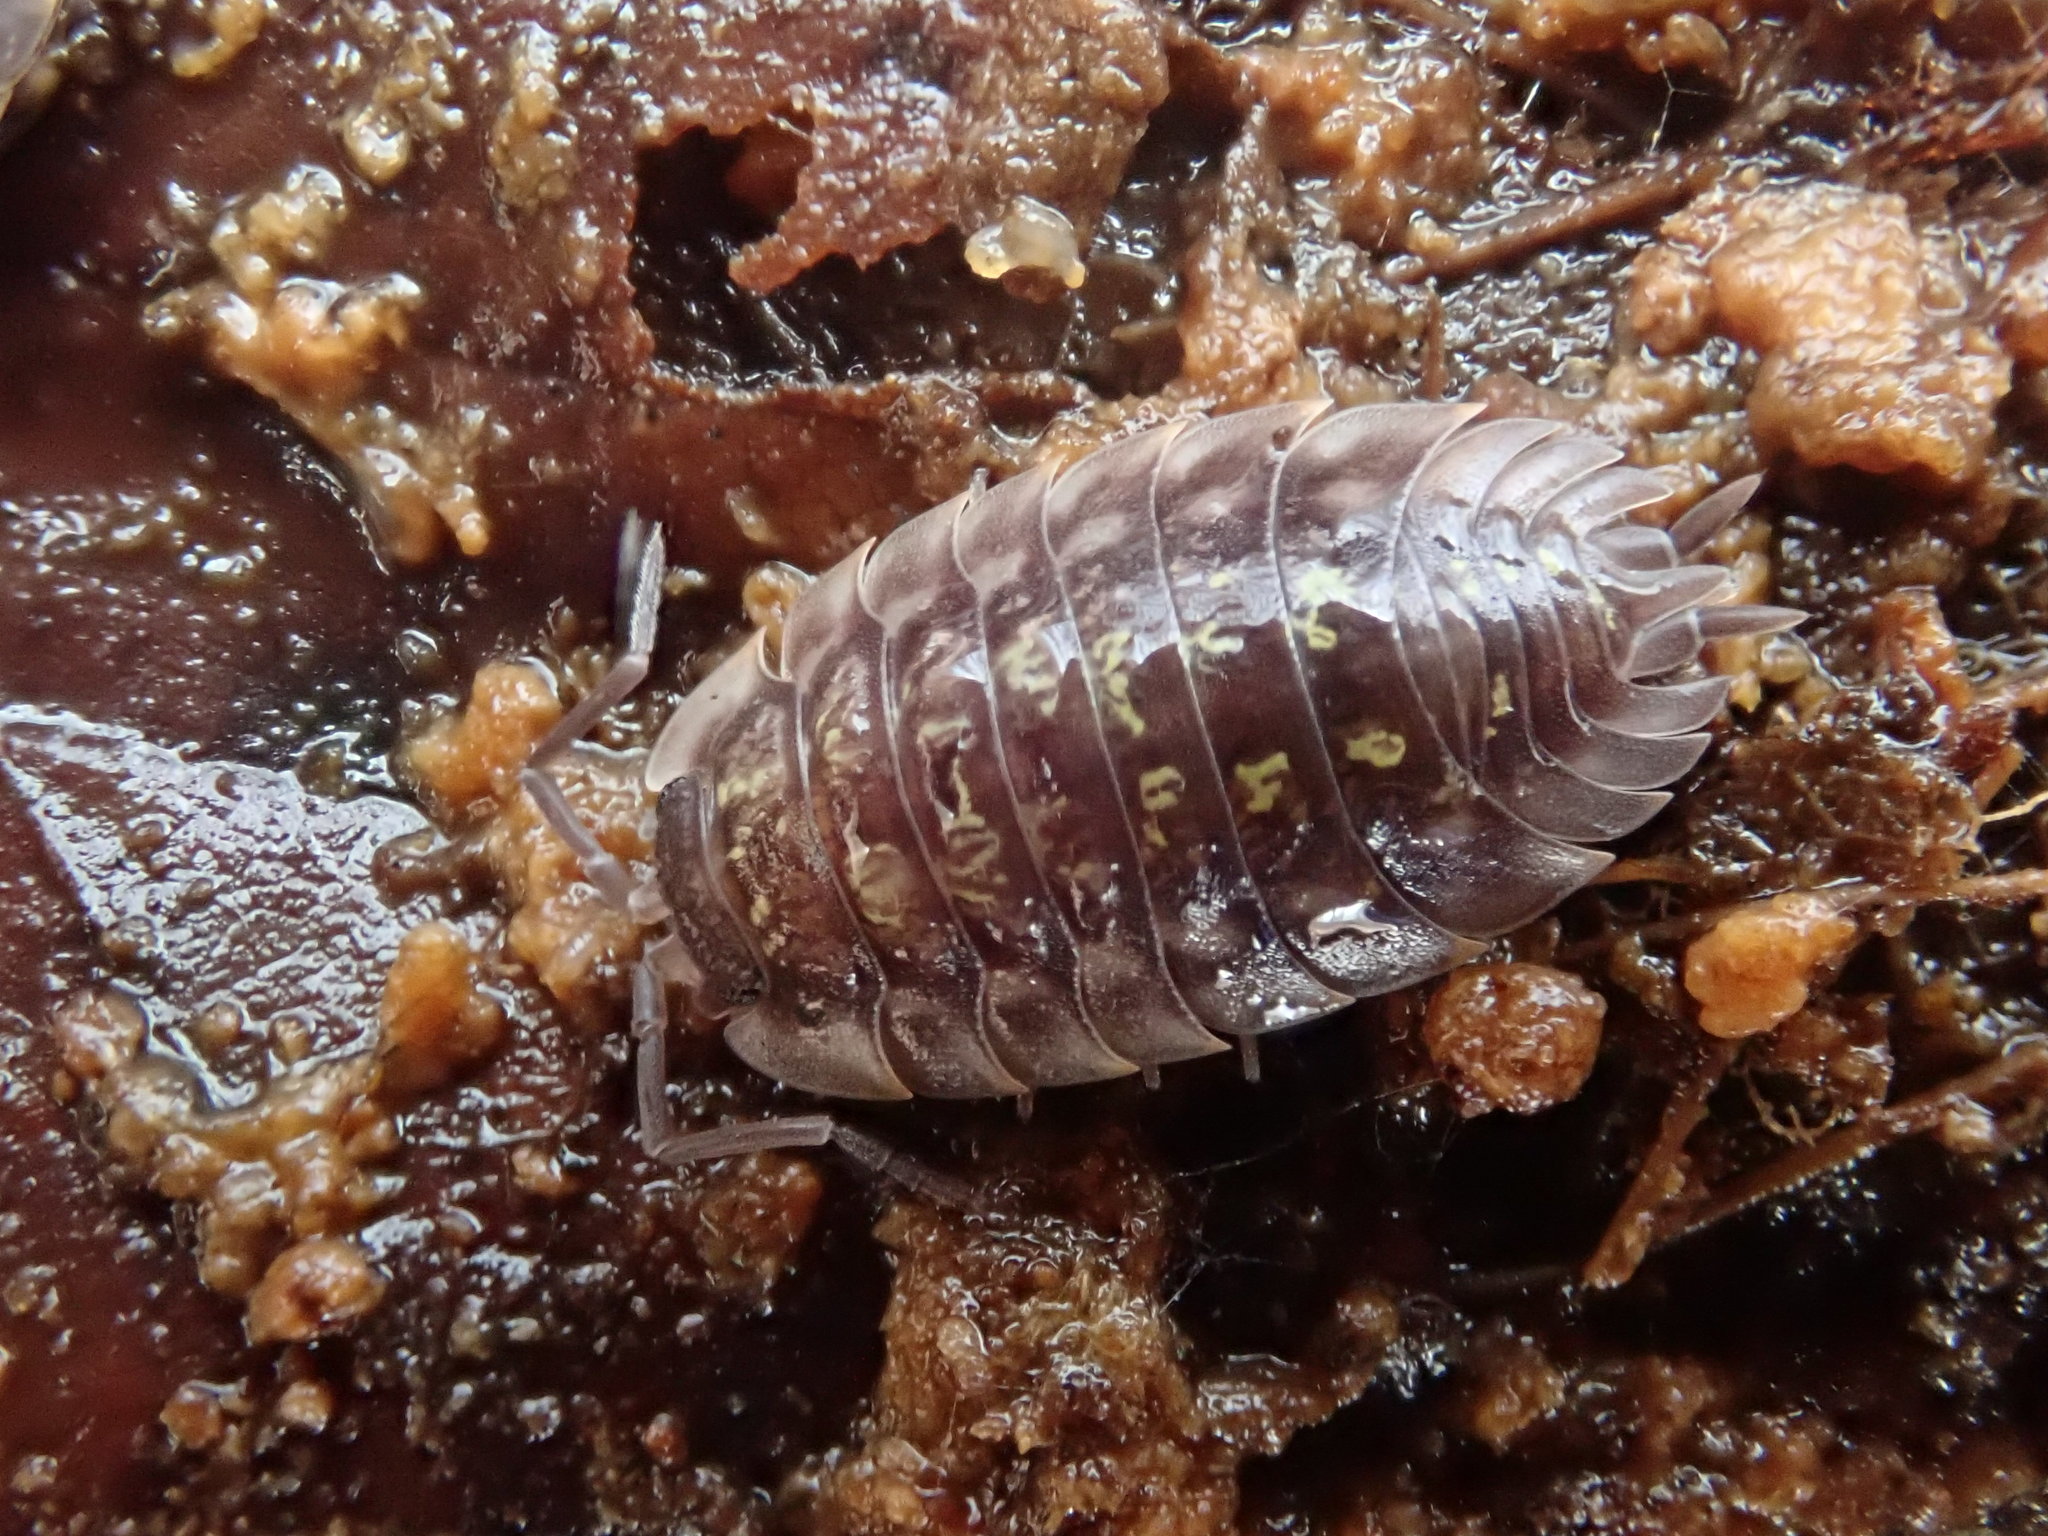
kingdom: Animalia
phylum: Arthropoda
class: Malacostraca
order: Isopoda
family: Oniscidae
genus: Oniscus
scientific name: Oniscus asellus
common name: Common shiny woodlouse
